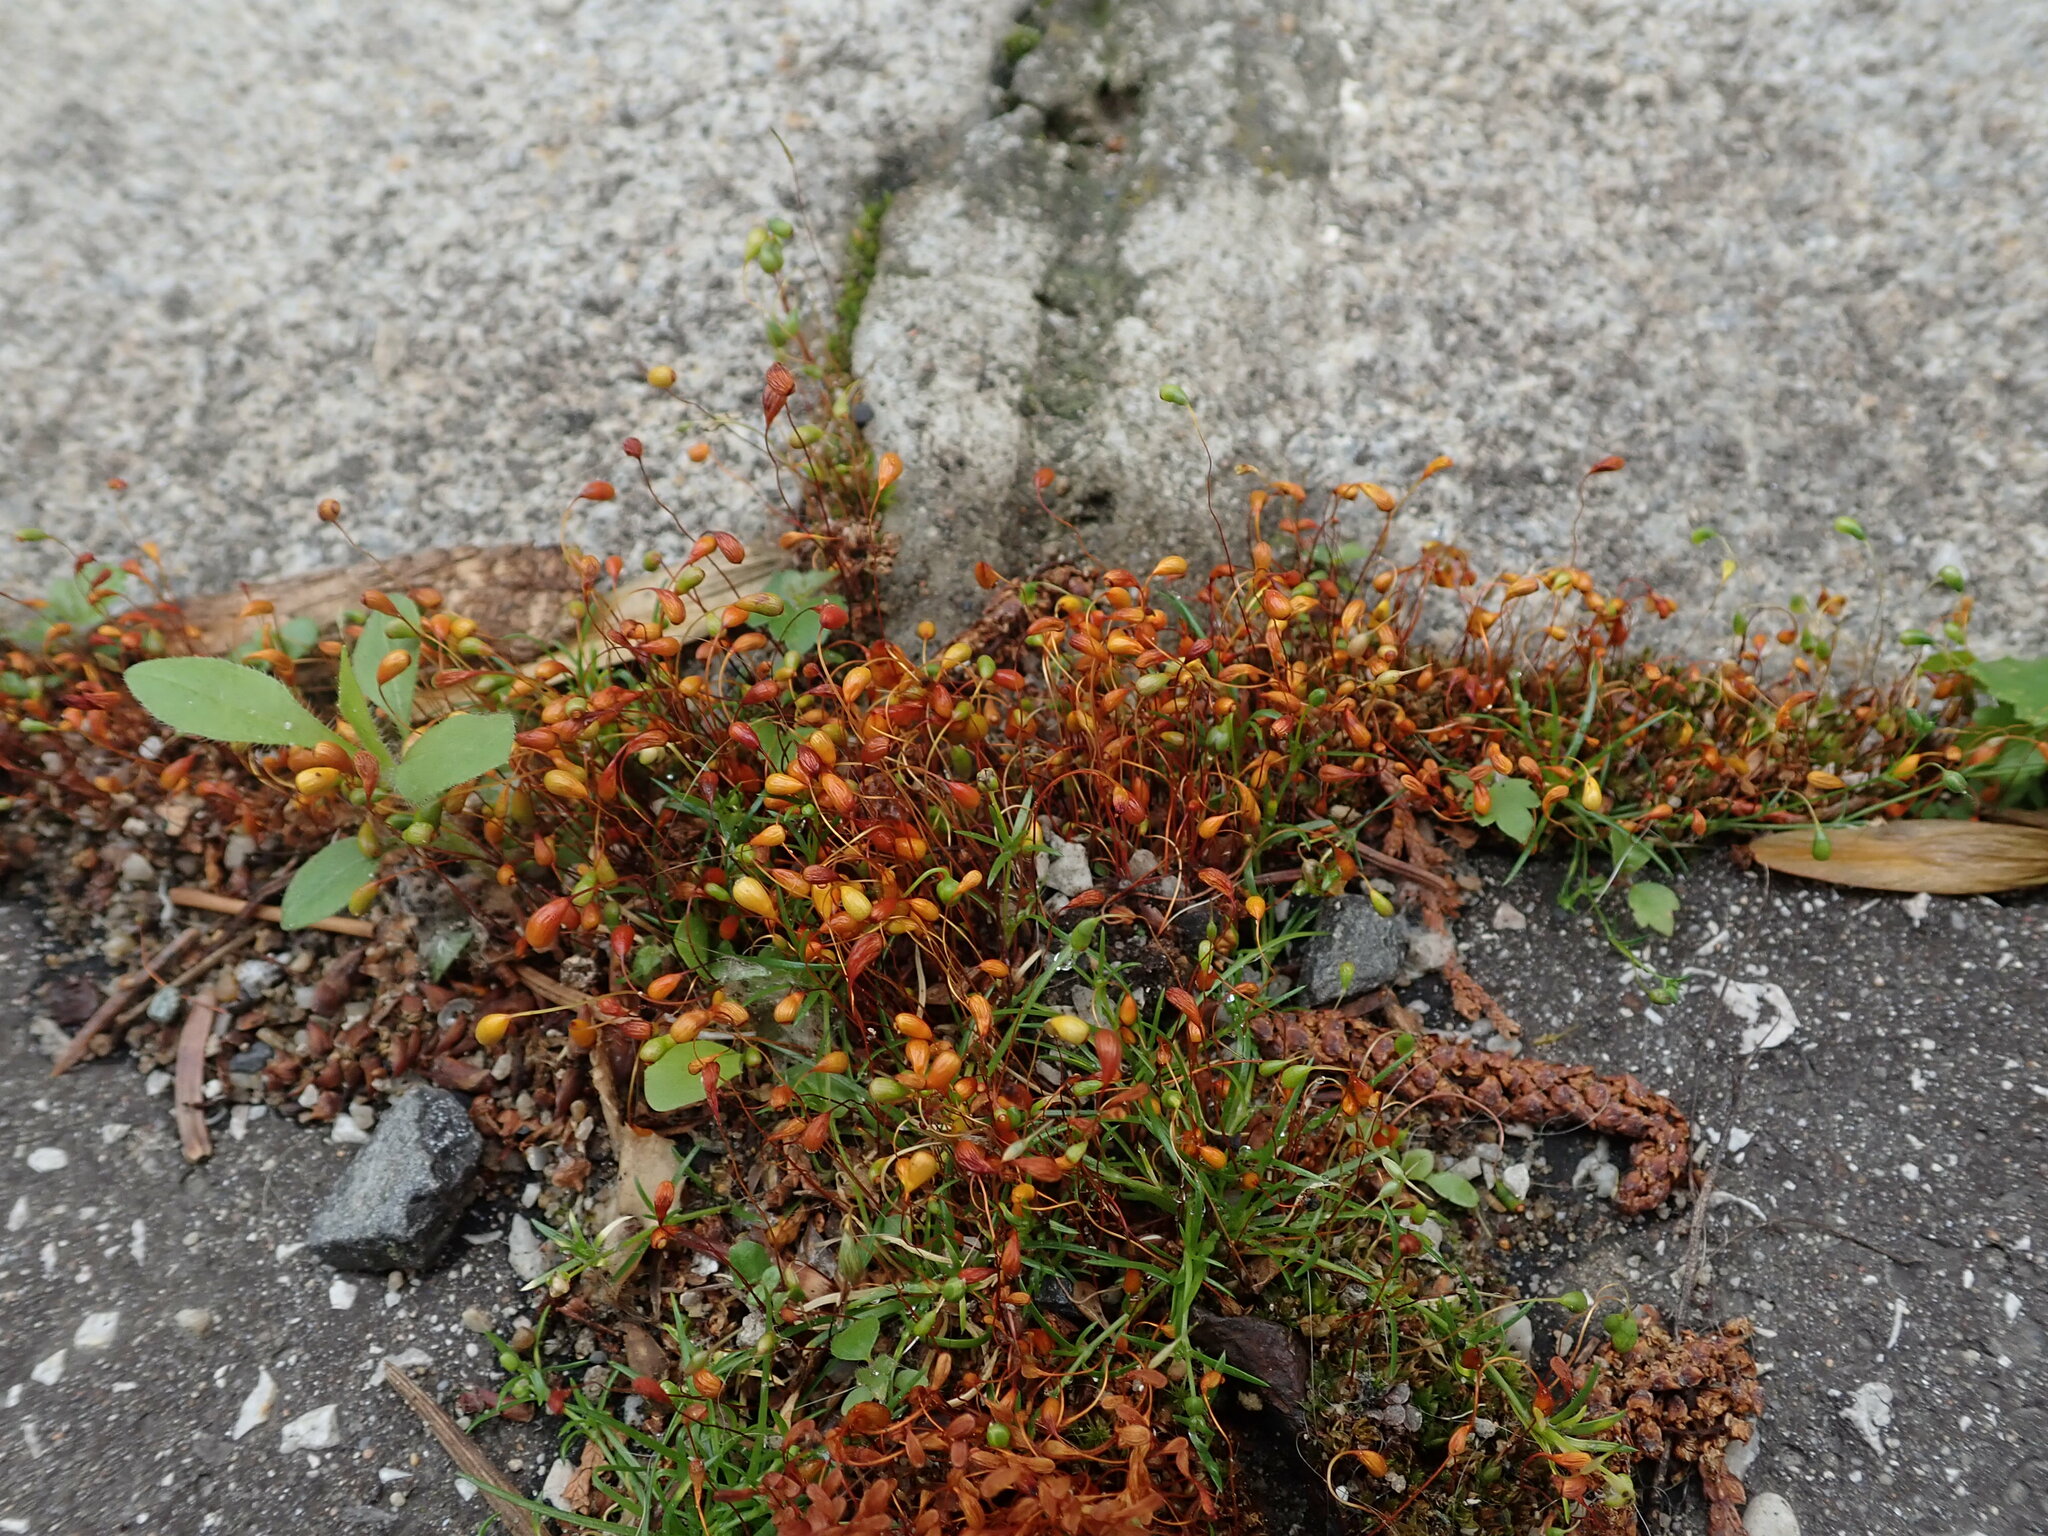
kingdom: Plantae
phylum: Bryophyta
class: Bryopsida
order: Funariales
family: Funariaceae
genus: Funaria
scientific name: Funaria hygrometrica
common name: Common cord moss
